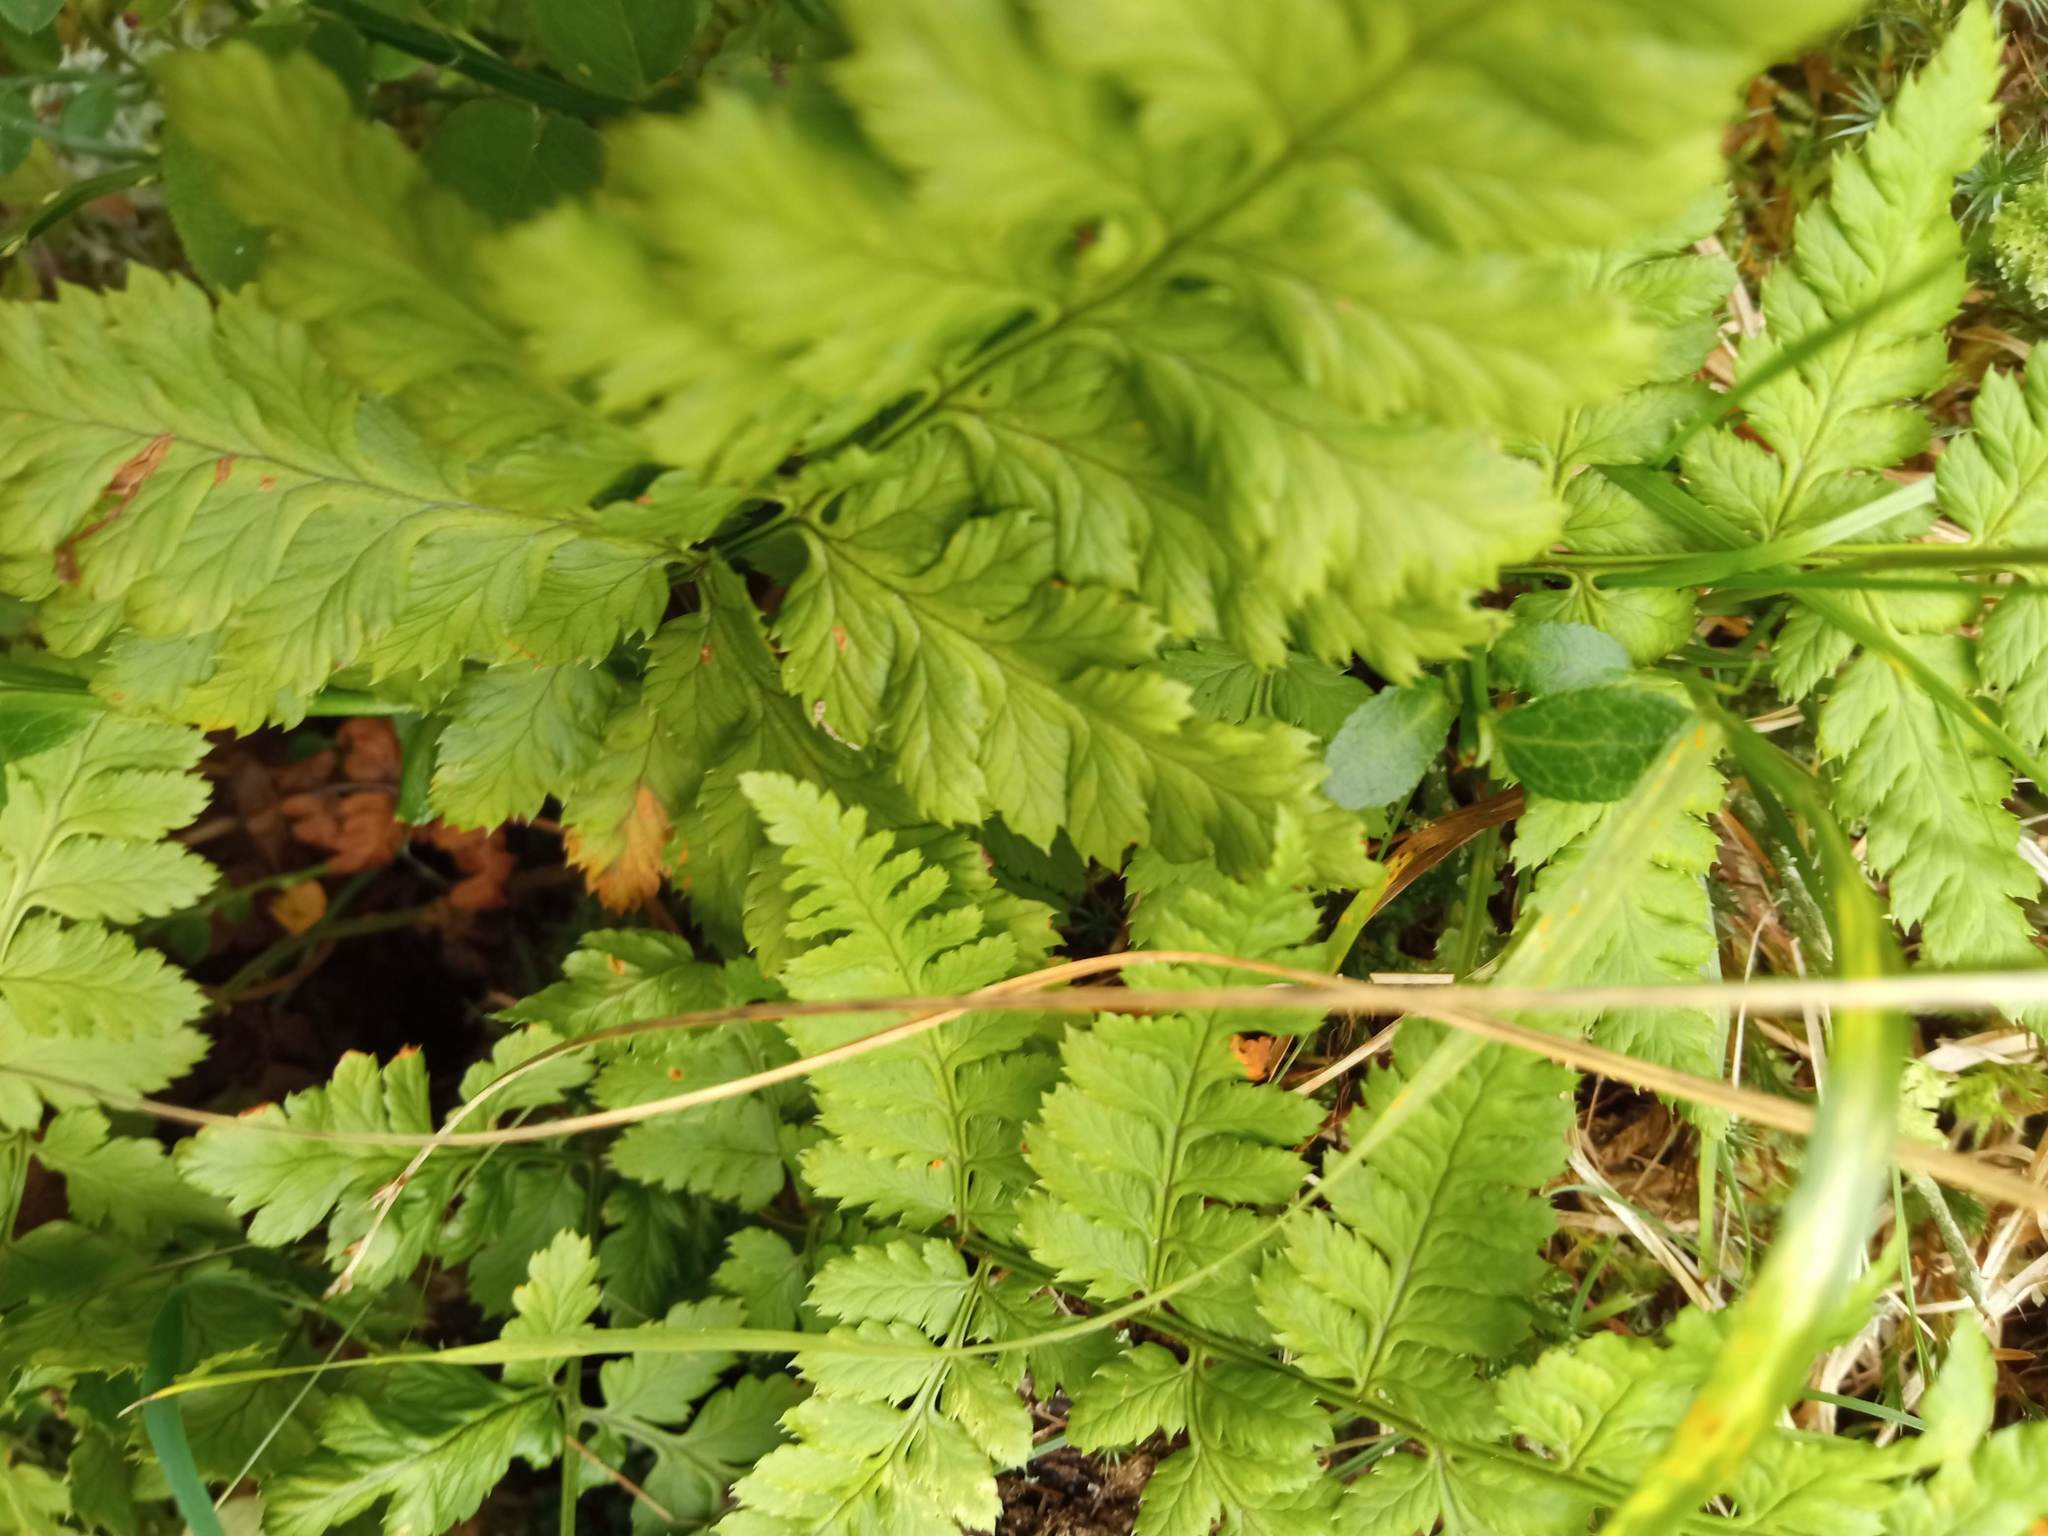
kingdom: Plantae
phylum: Tracheophyta
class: Polypodiopsida
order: Polypodiales
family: Dryopteridaceae
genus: Dryopteris
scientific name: Dryopteris carthusiana
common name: Narrow buckler-fern
